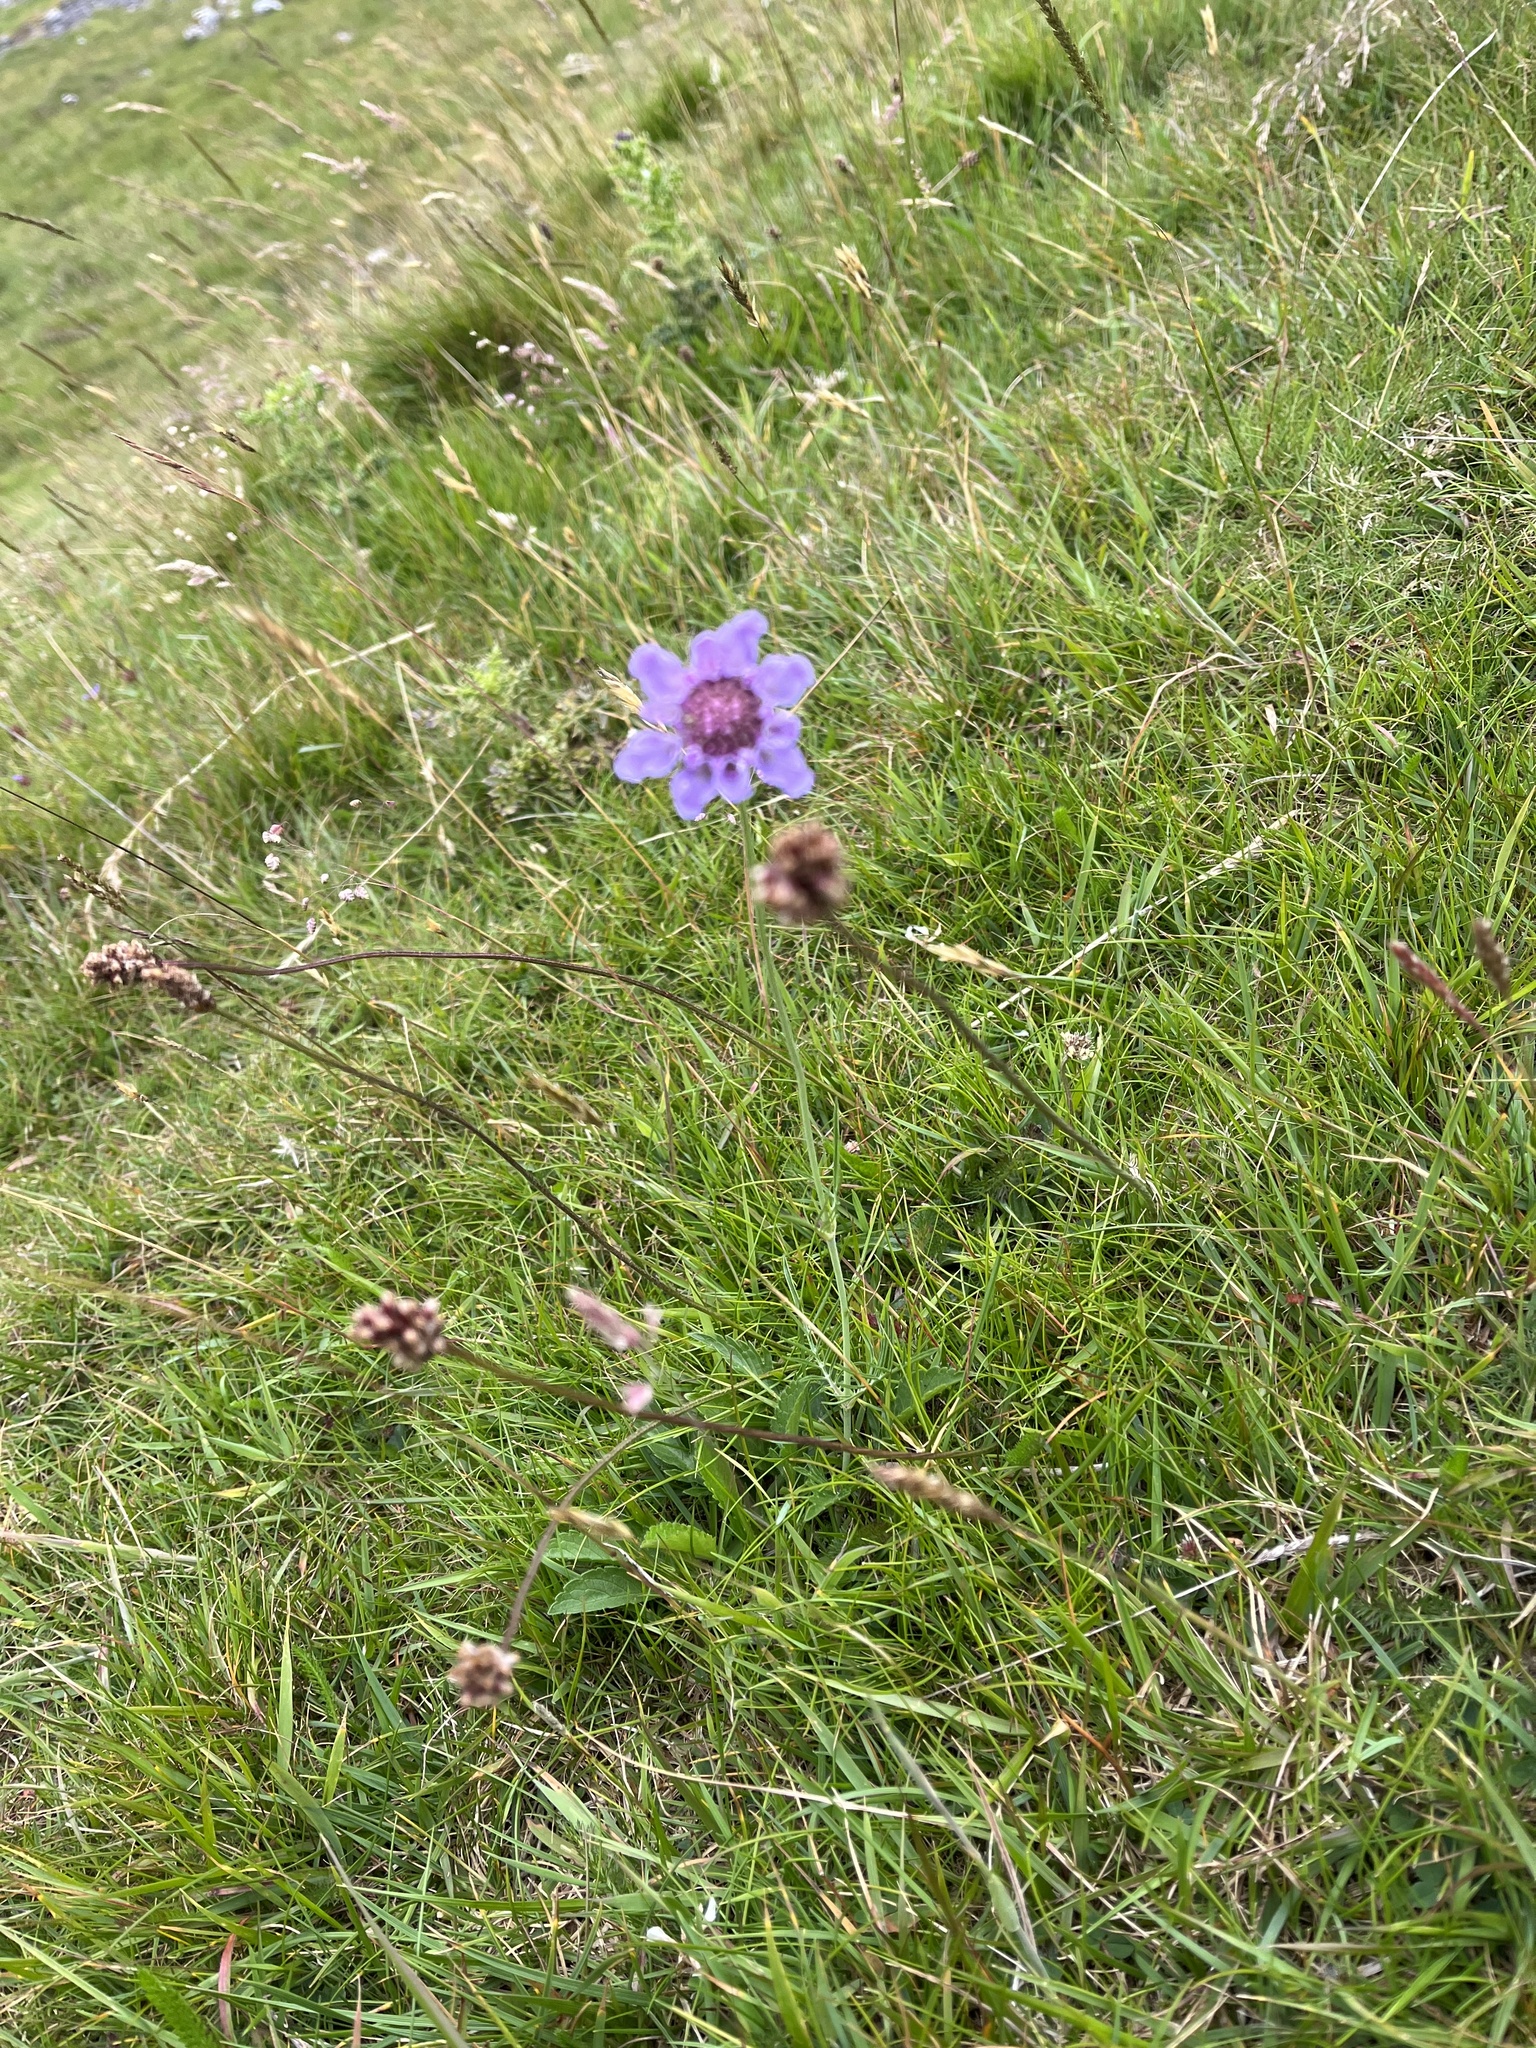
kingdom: Plantae
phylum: Tracheophyta
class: Magnoliopsida
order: Dipsacales
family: Caprifoliaceae
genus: Scabiosa
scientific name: Scabiosa columbaria
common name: Small scabious
